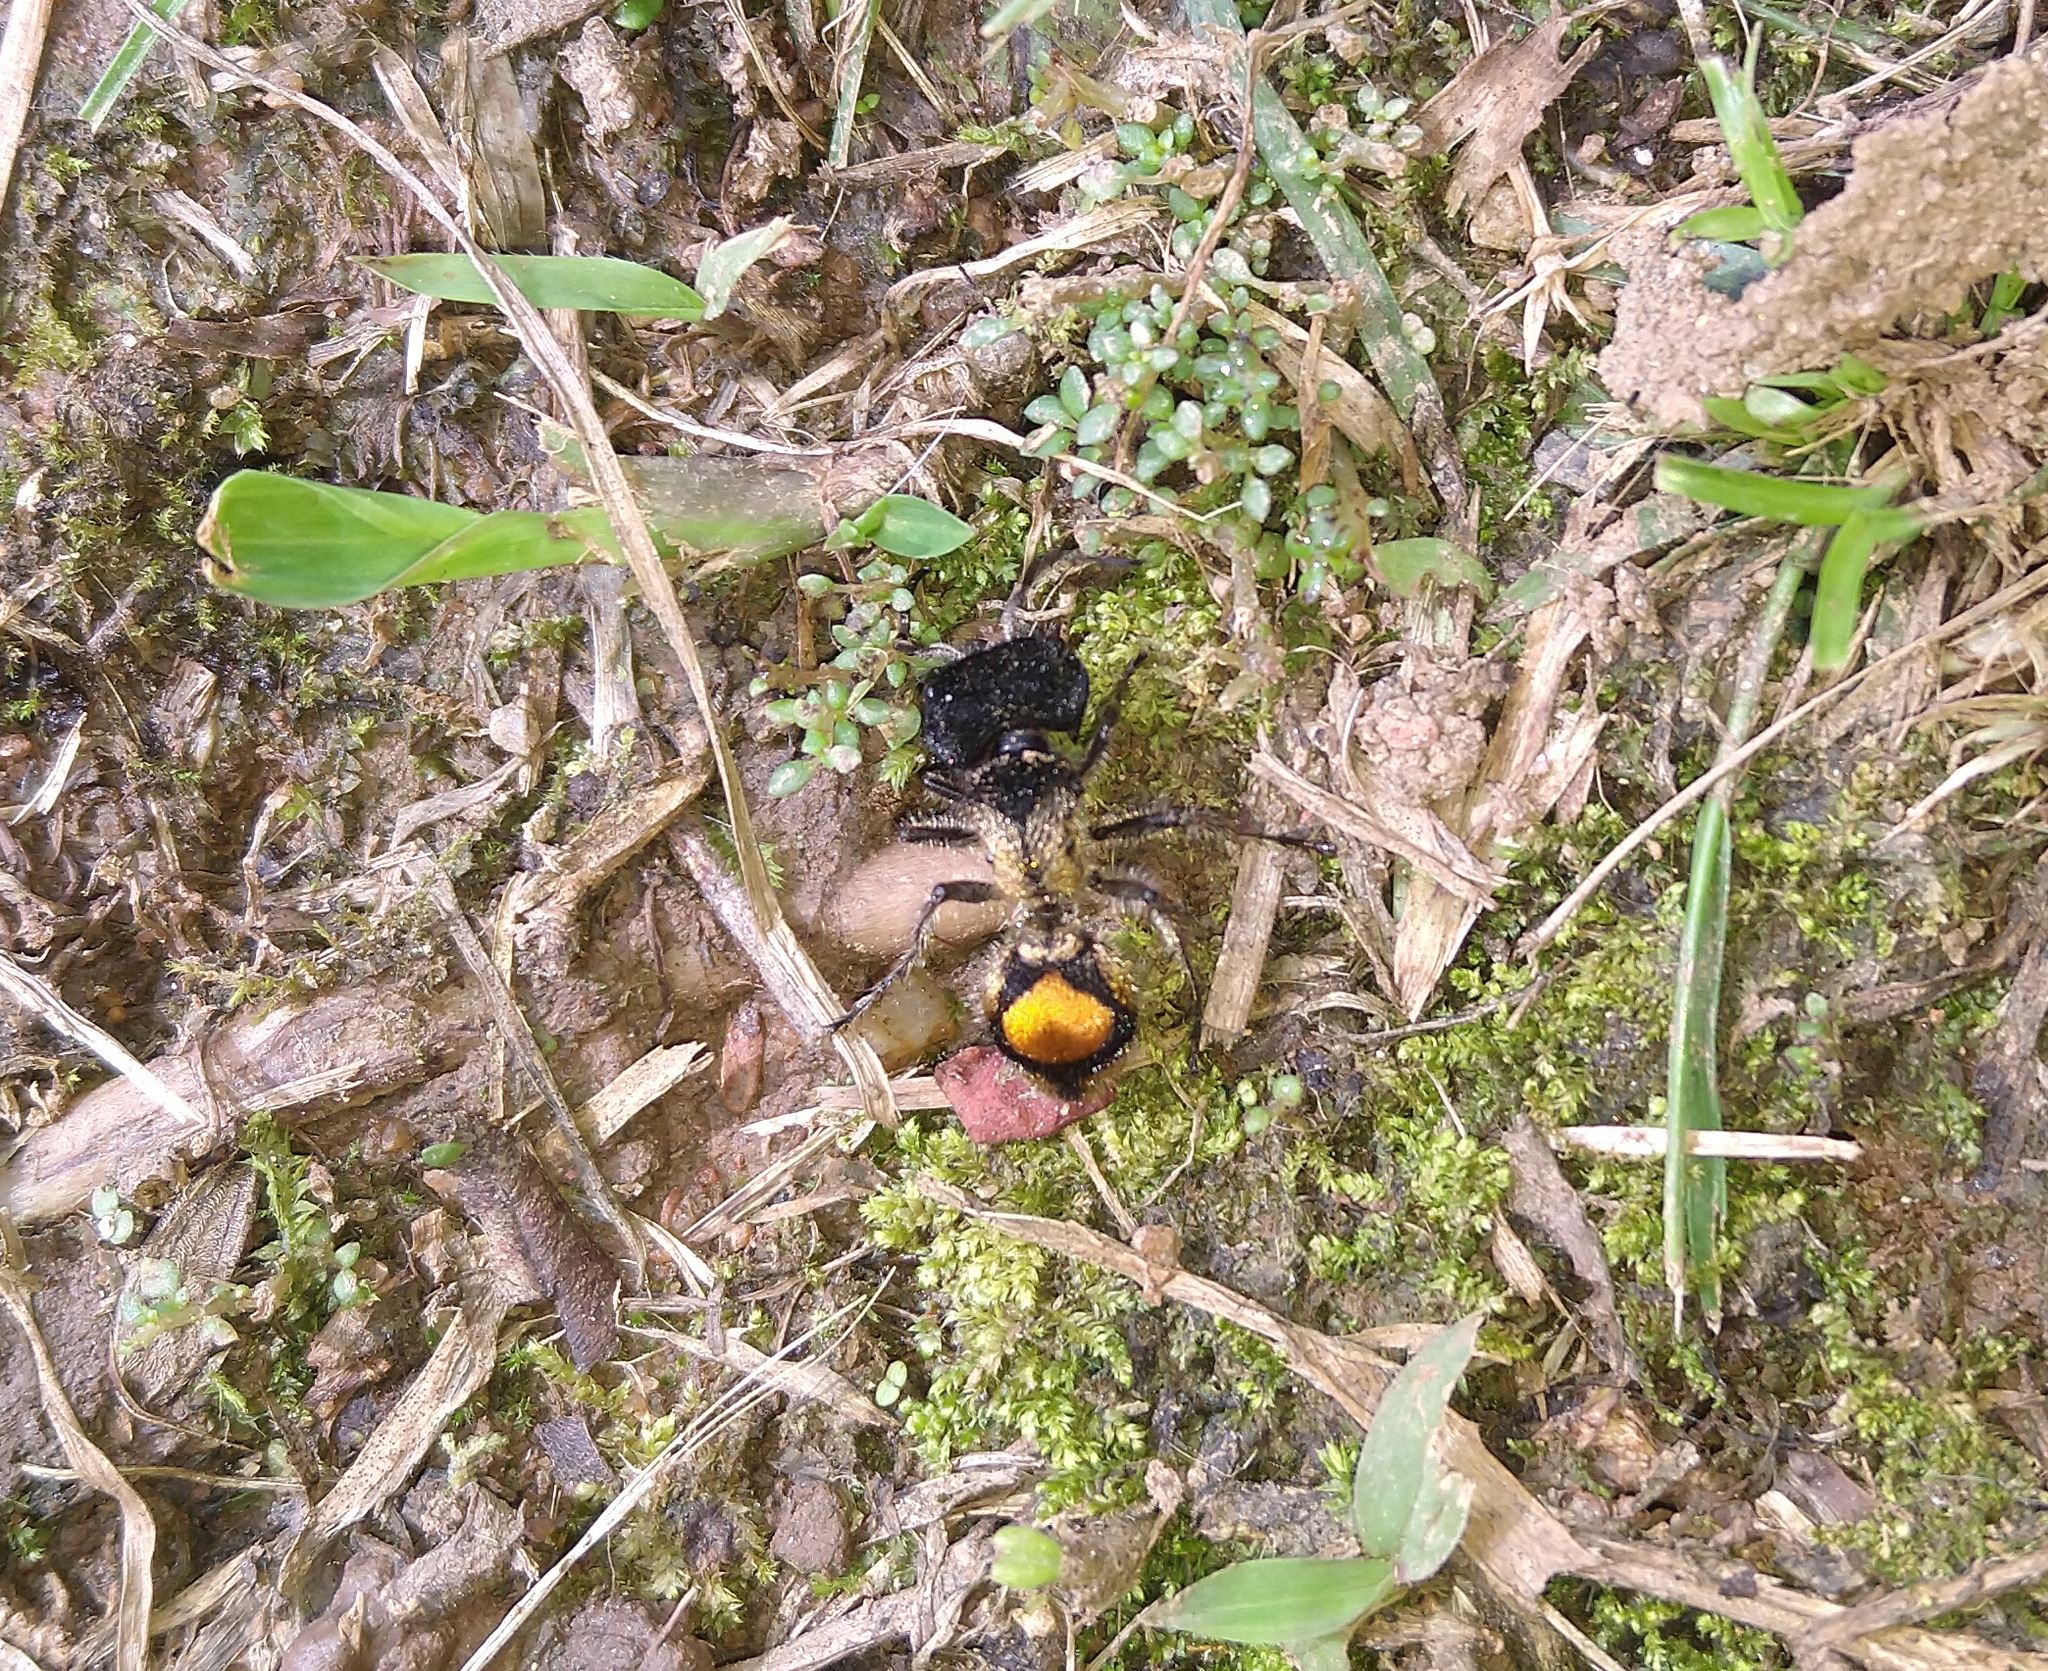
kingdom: Animalia
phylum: Arthropoda
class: Insecta
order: Hymenoptera
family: Mutillidae
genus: Hoplocrates
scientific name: Hoplocrates
